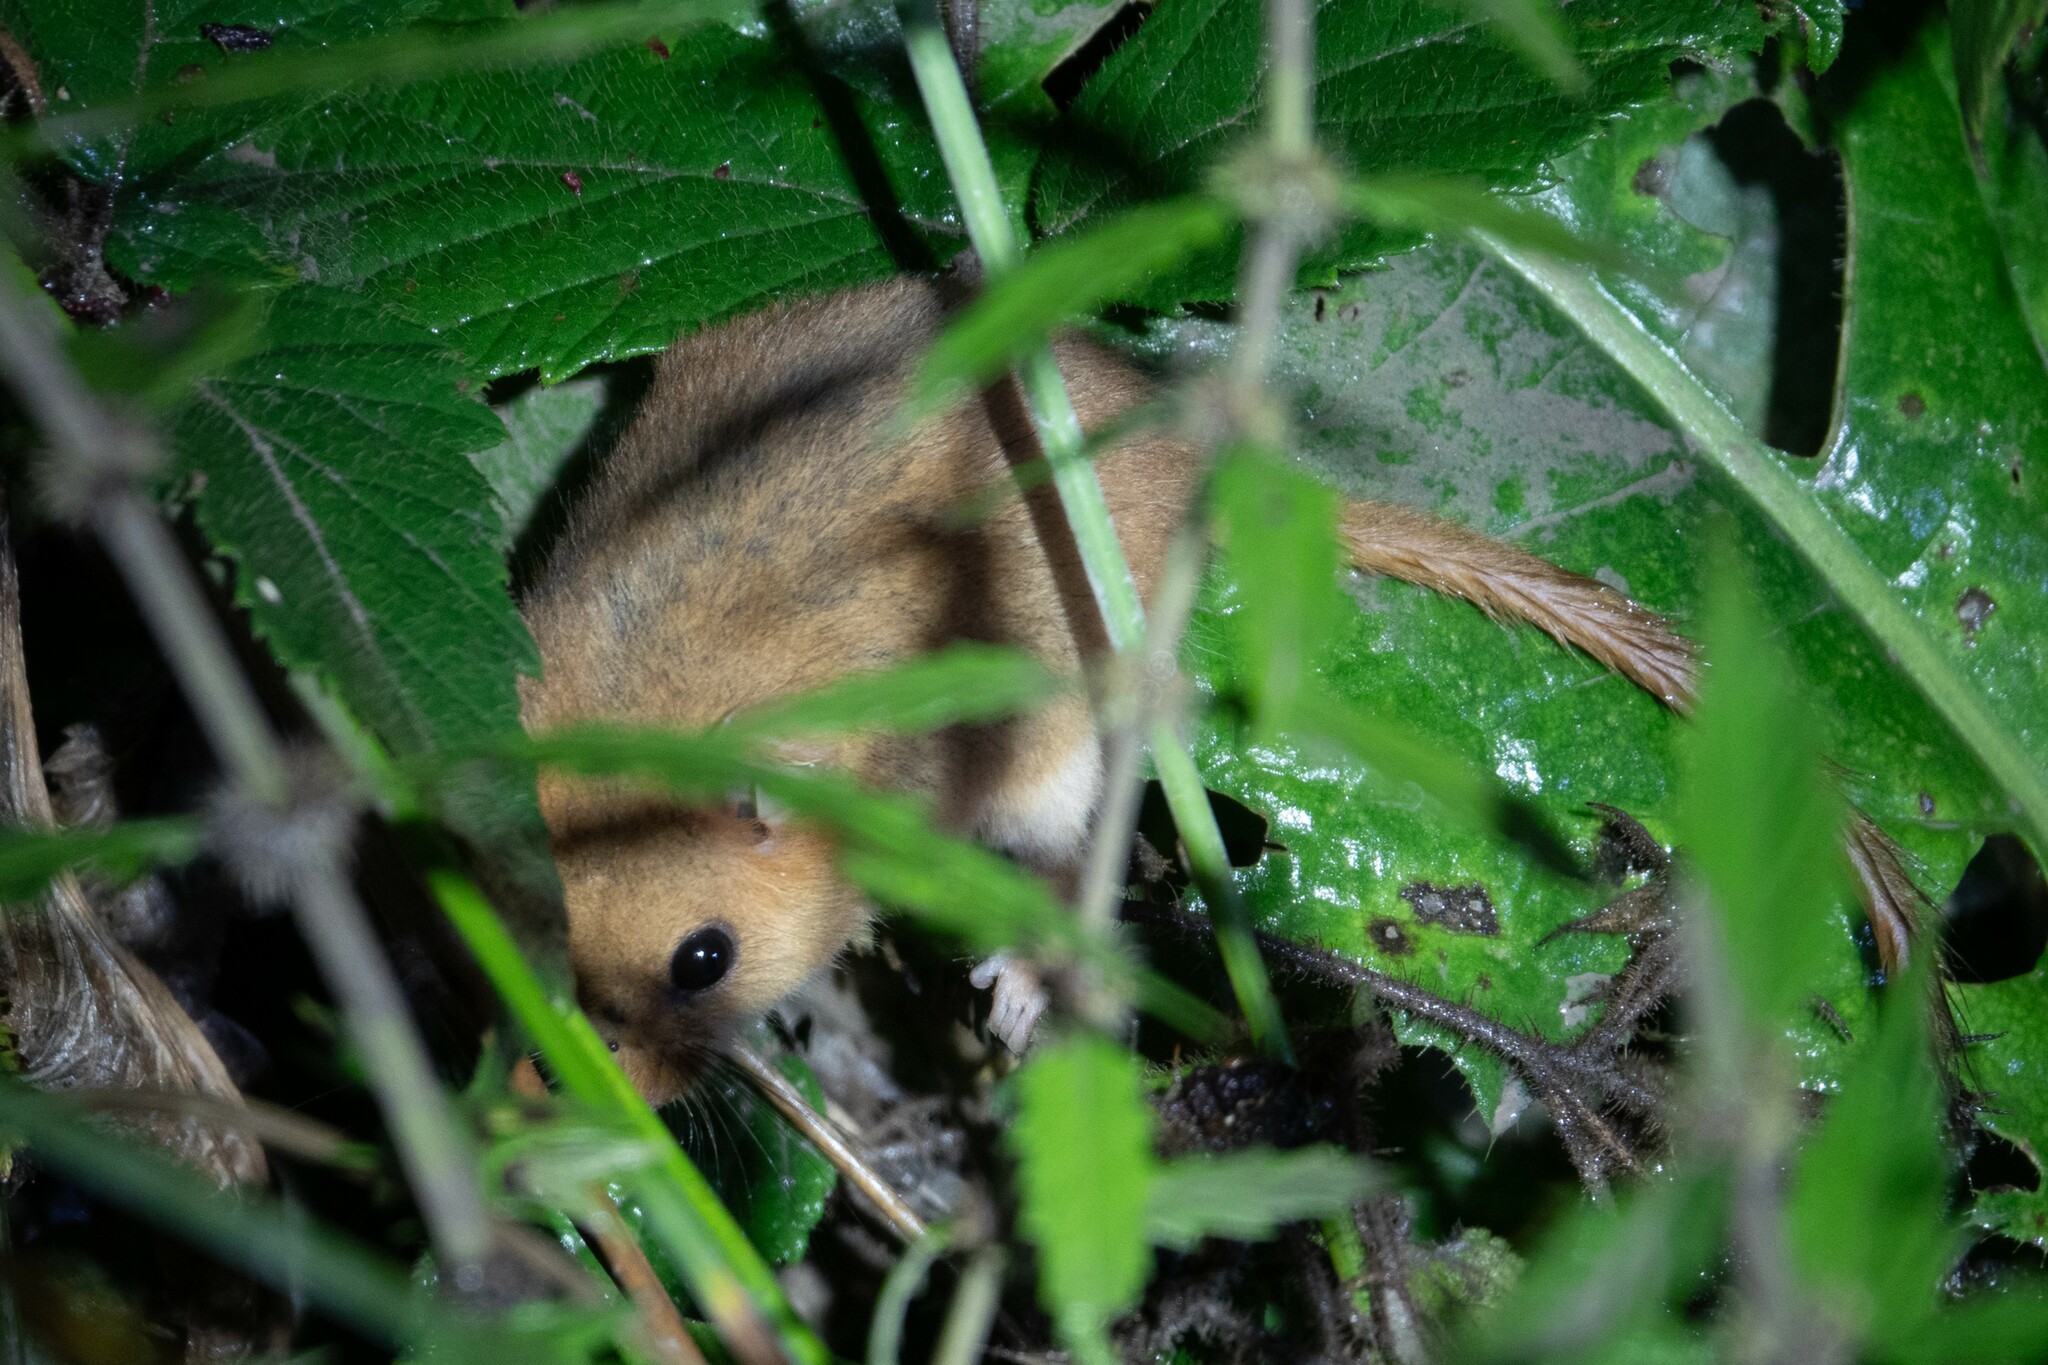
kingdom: Animalia
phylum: Chordata
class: Mammalia
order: Rodentia
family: Gliridae
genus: Muscardinus
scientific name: Muscardinus avellanarius
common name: Hazel dormouse
